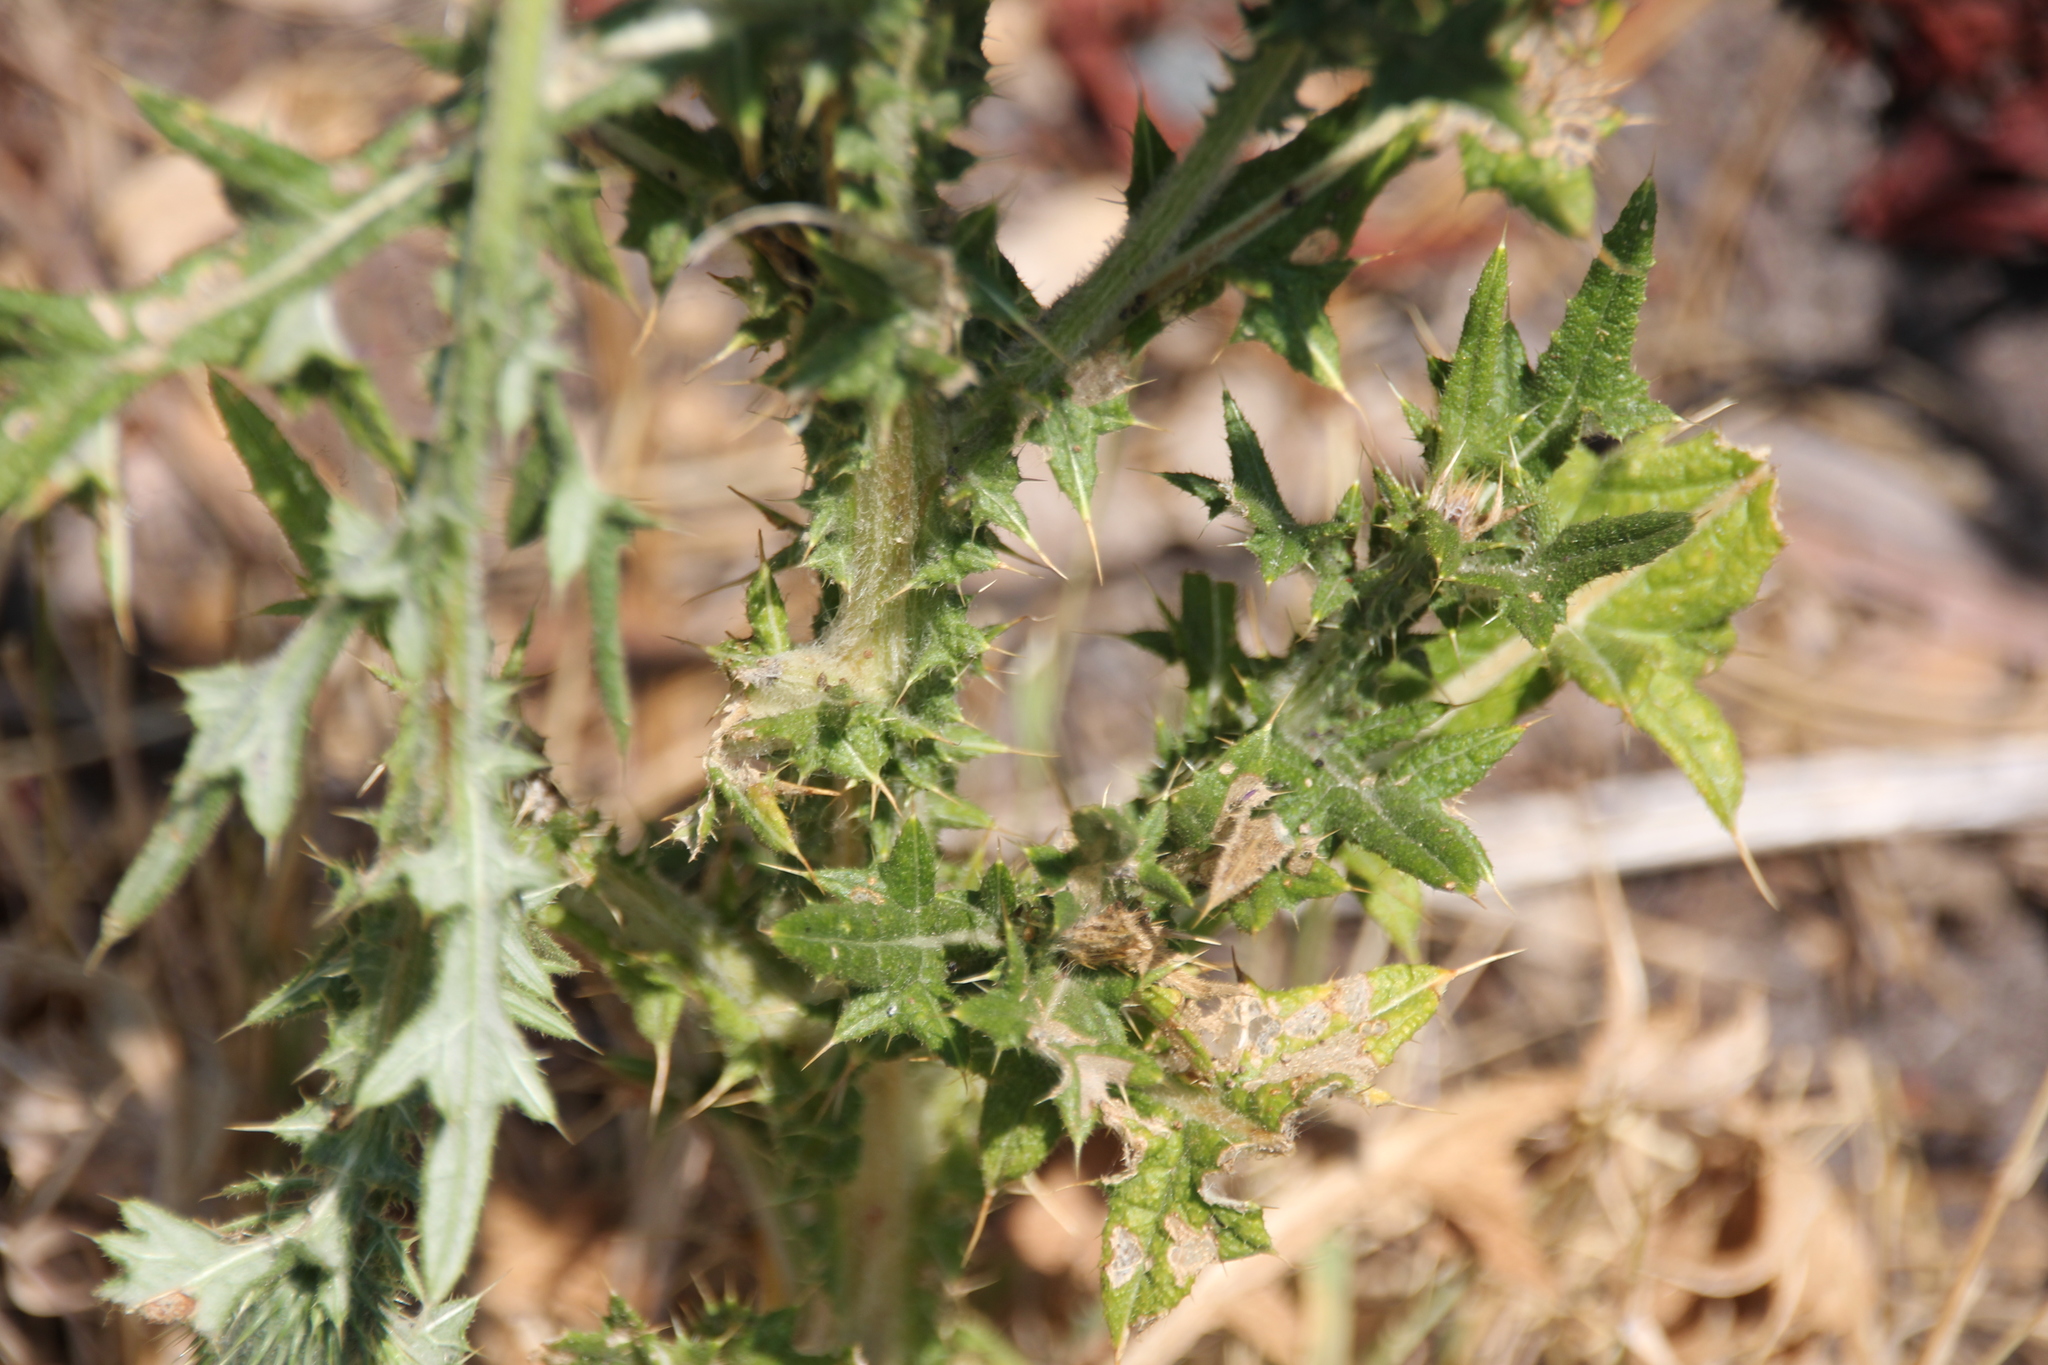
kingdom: Plantae
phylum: Tracheophyta
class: Magnoliopsida
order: Asterales
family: Asteraceae
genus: Cirsium
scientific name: Cirsium vulgare
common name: Bull thistle
